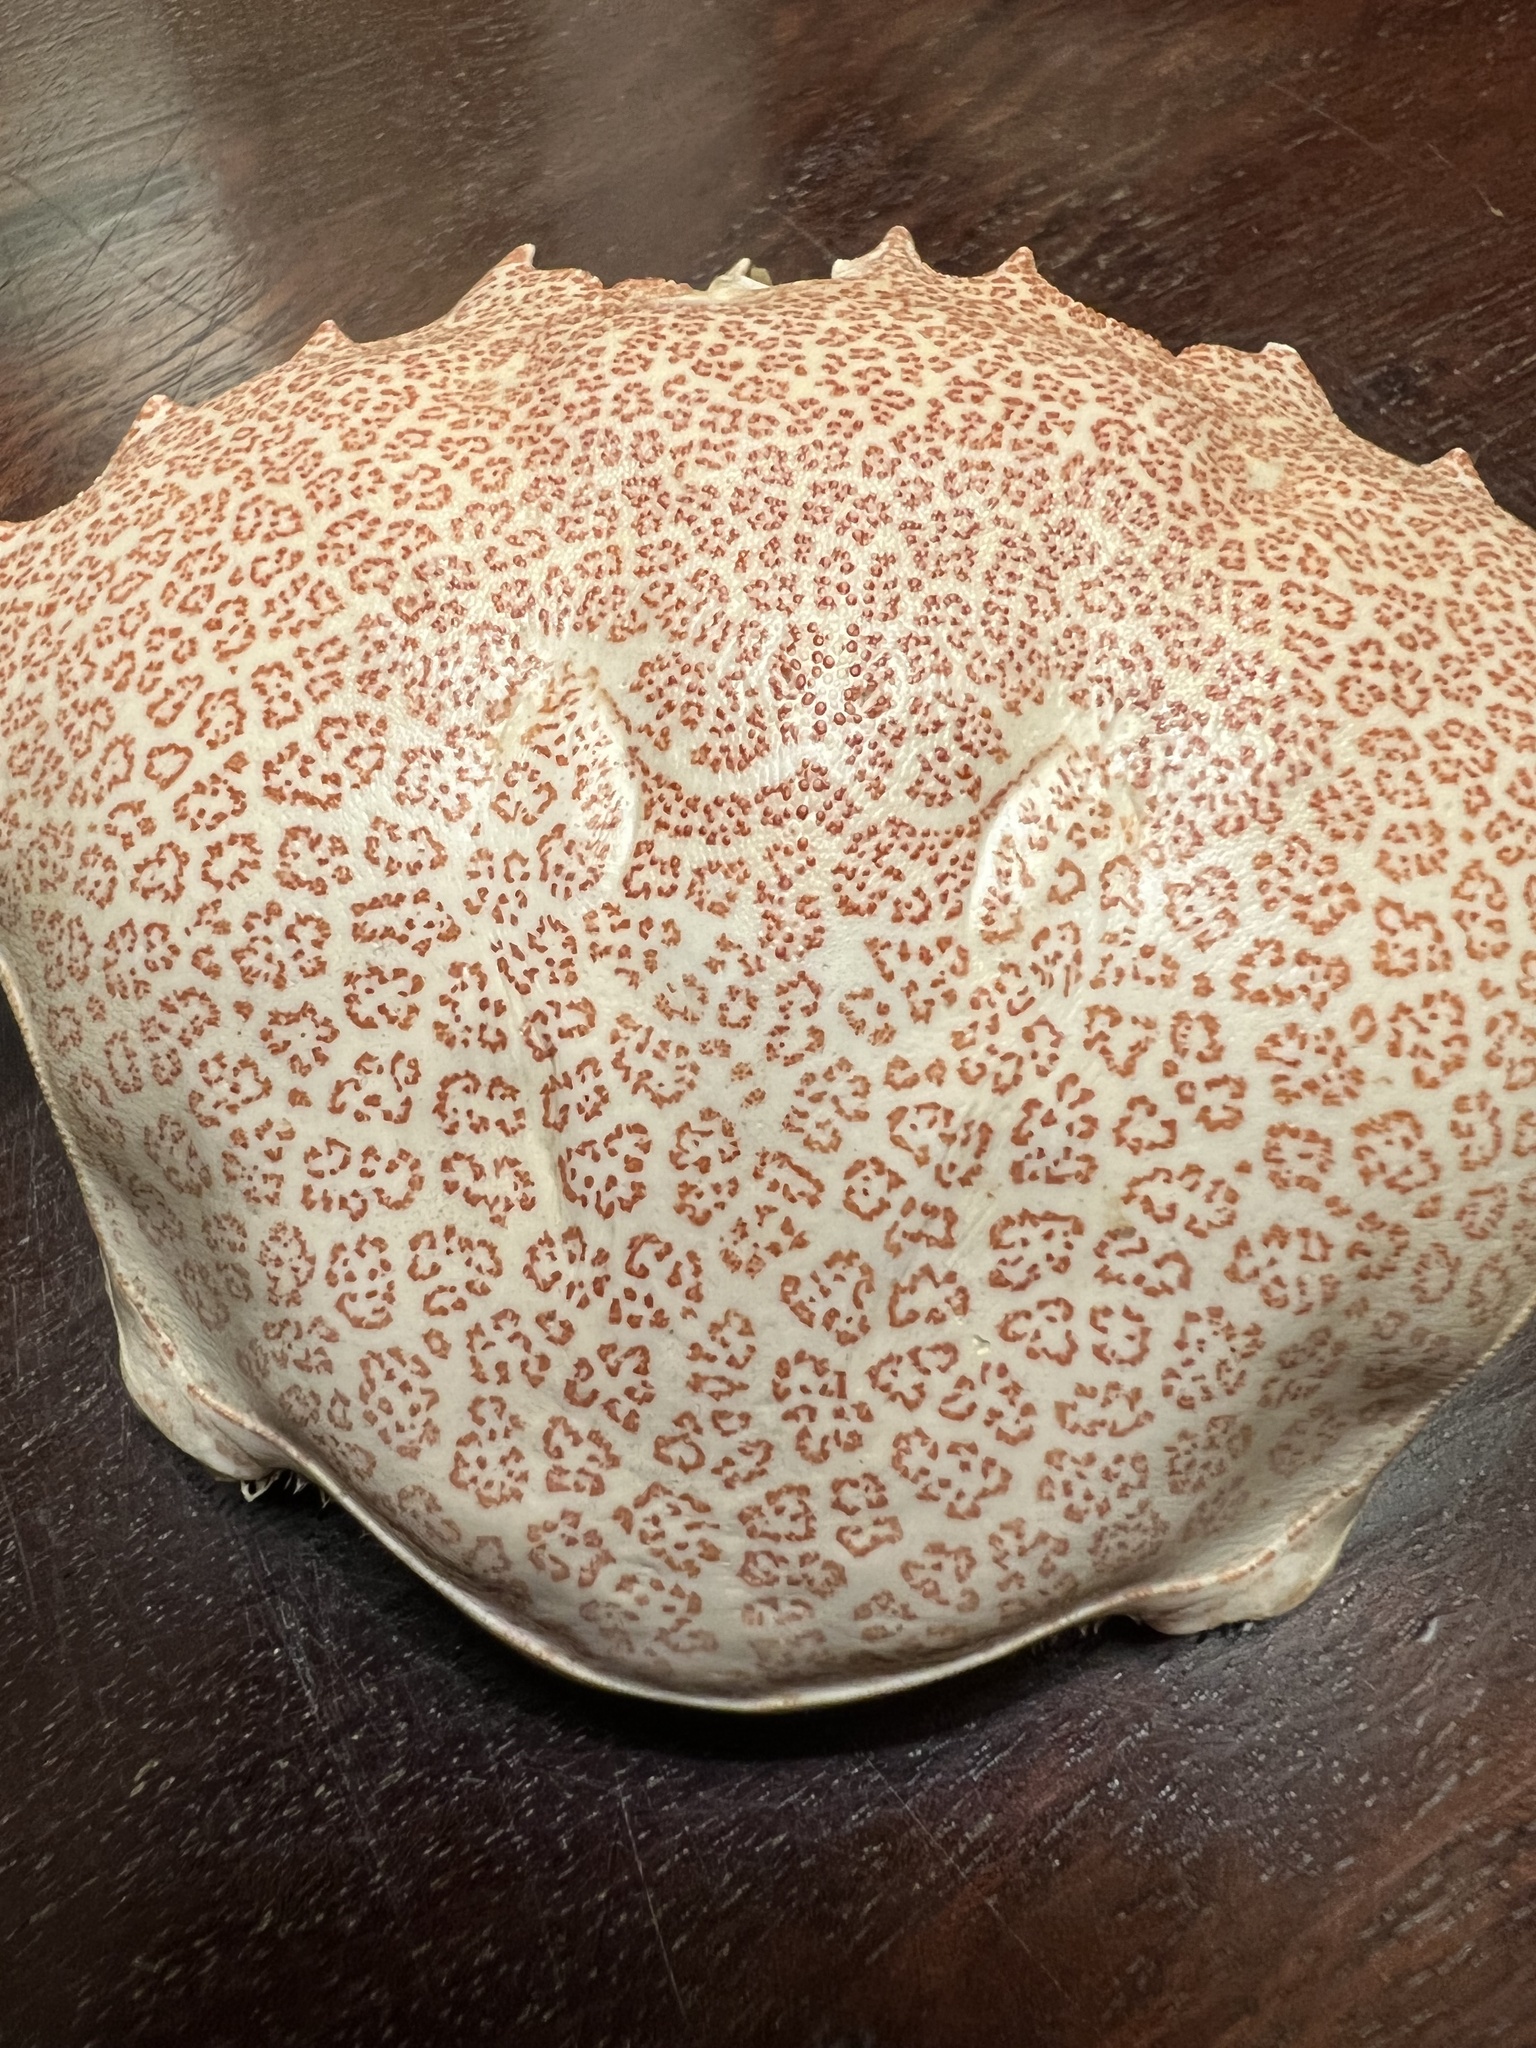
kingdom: Animalia
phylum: Arthropoda
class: Malacostraca
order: Decapoda
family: Ovalipidae
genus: Ovalipes
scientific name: Ovalipes ocellatus
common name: Lady crab
